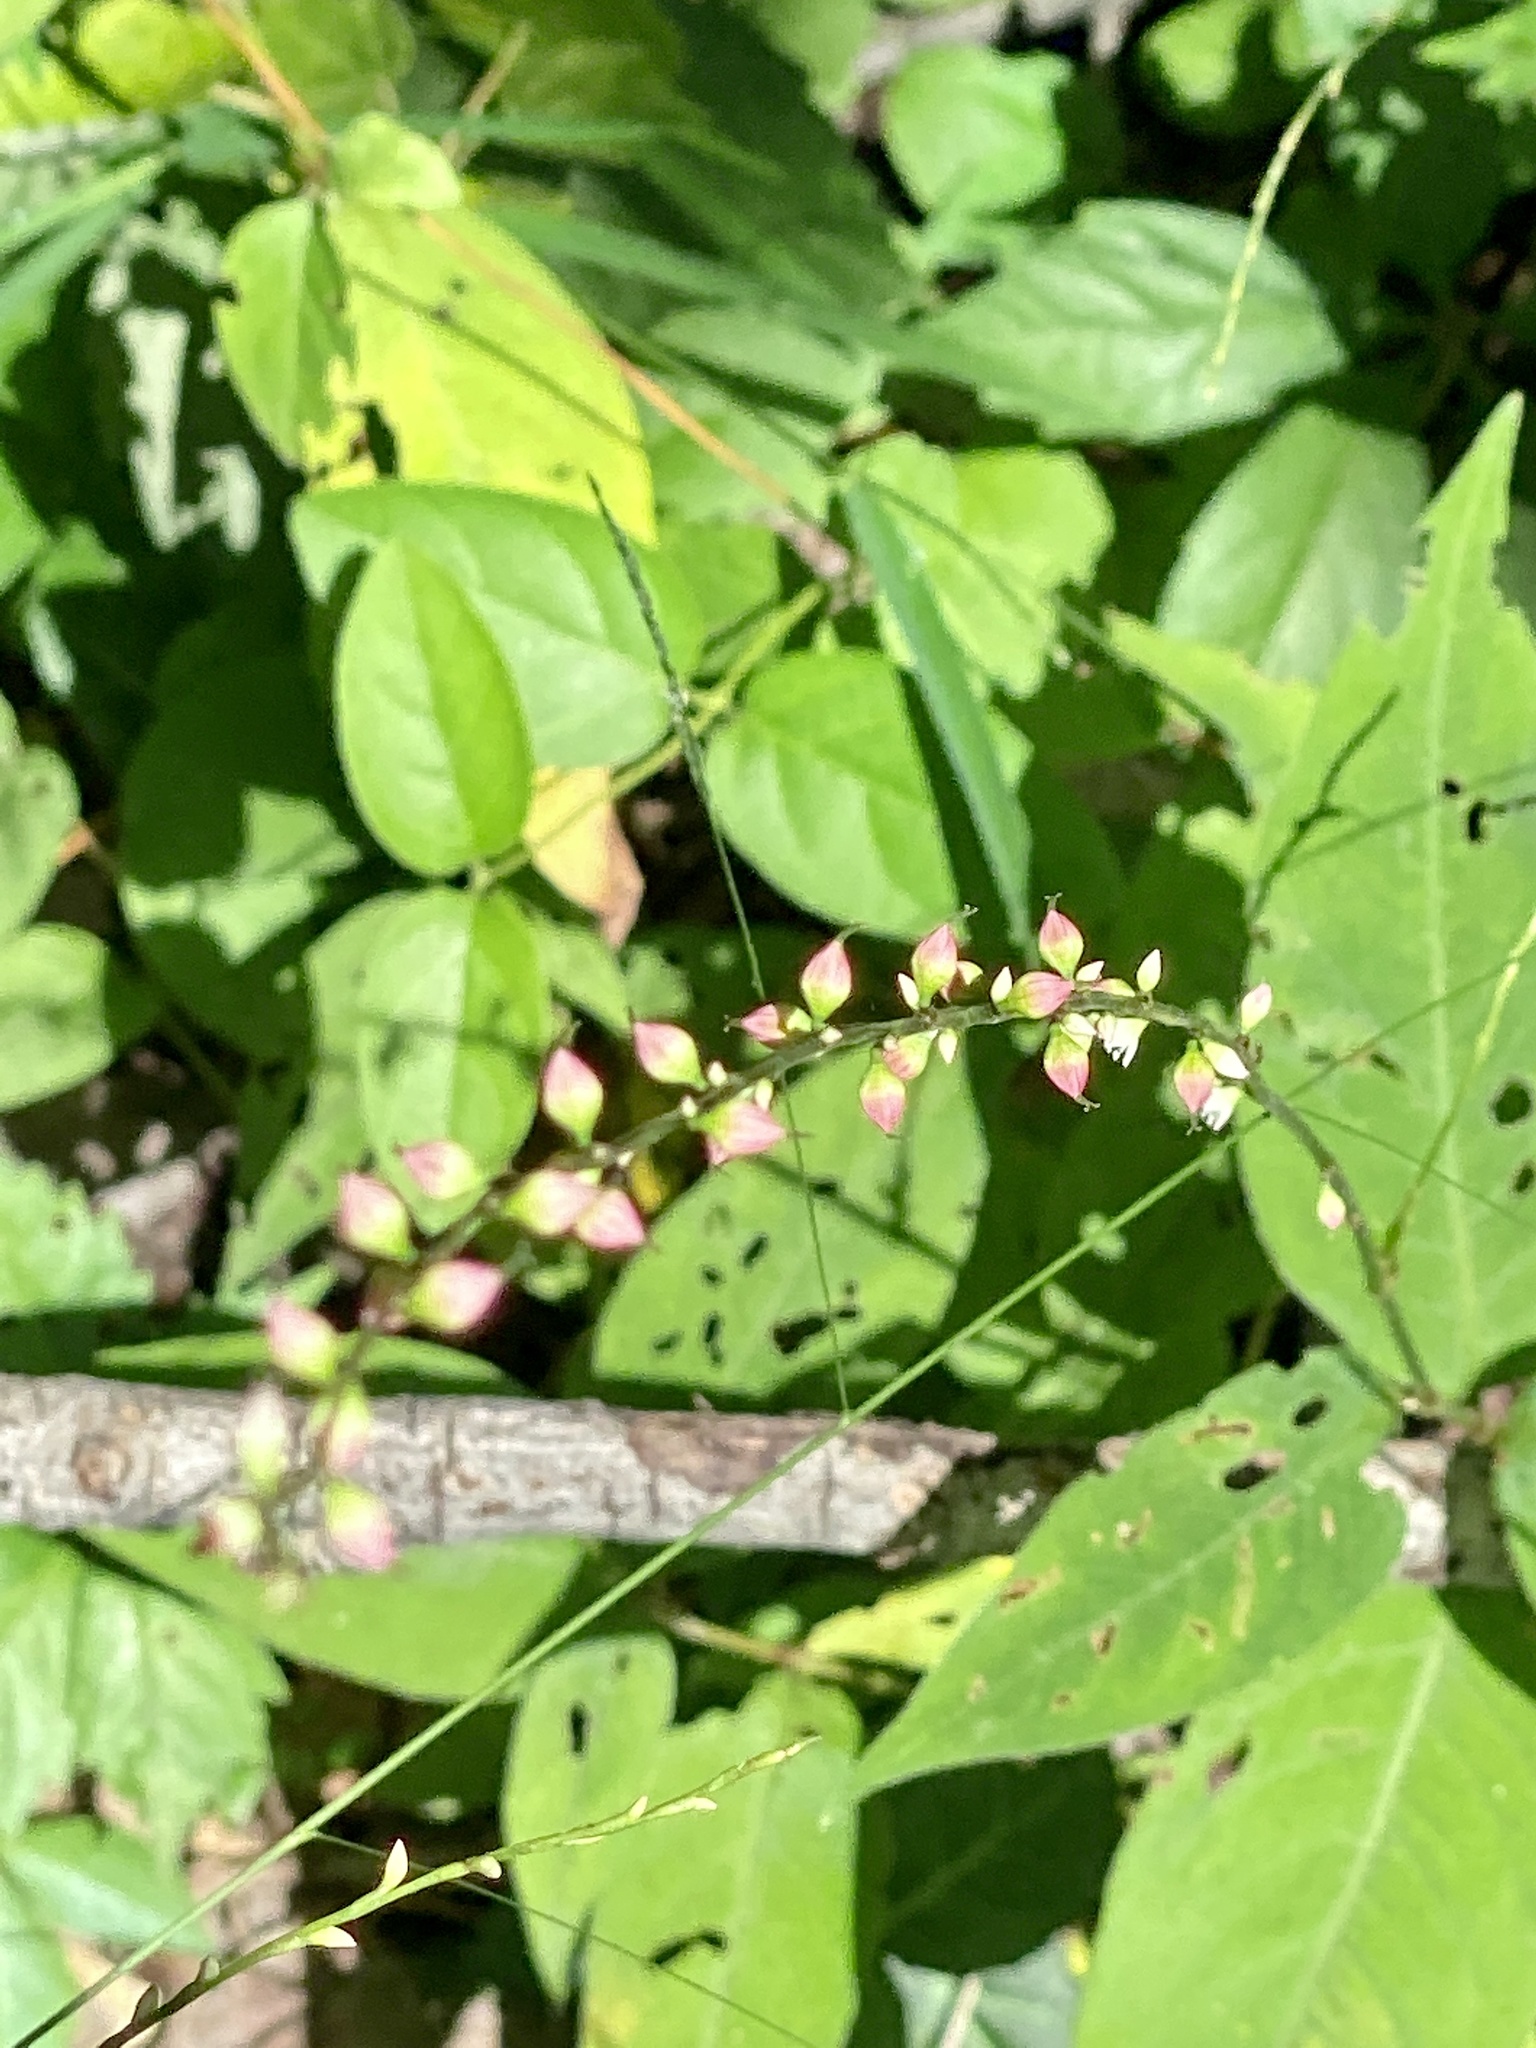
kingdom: Plantae
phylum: Tracheophyta
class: Magnoliopsida
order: Caryophyllales
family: Polygonaceae
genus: Persicaria
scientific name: Persicaria virginiana
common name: Jumpseed
